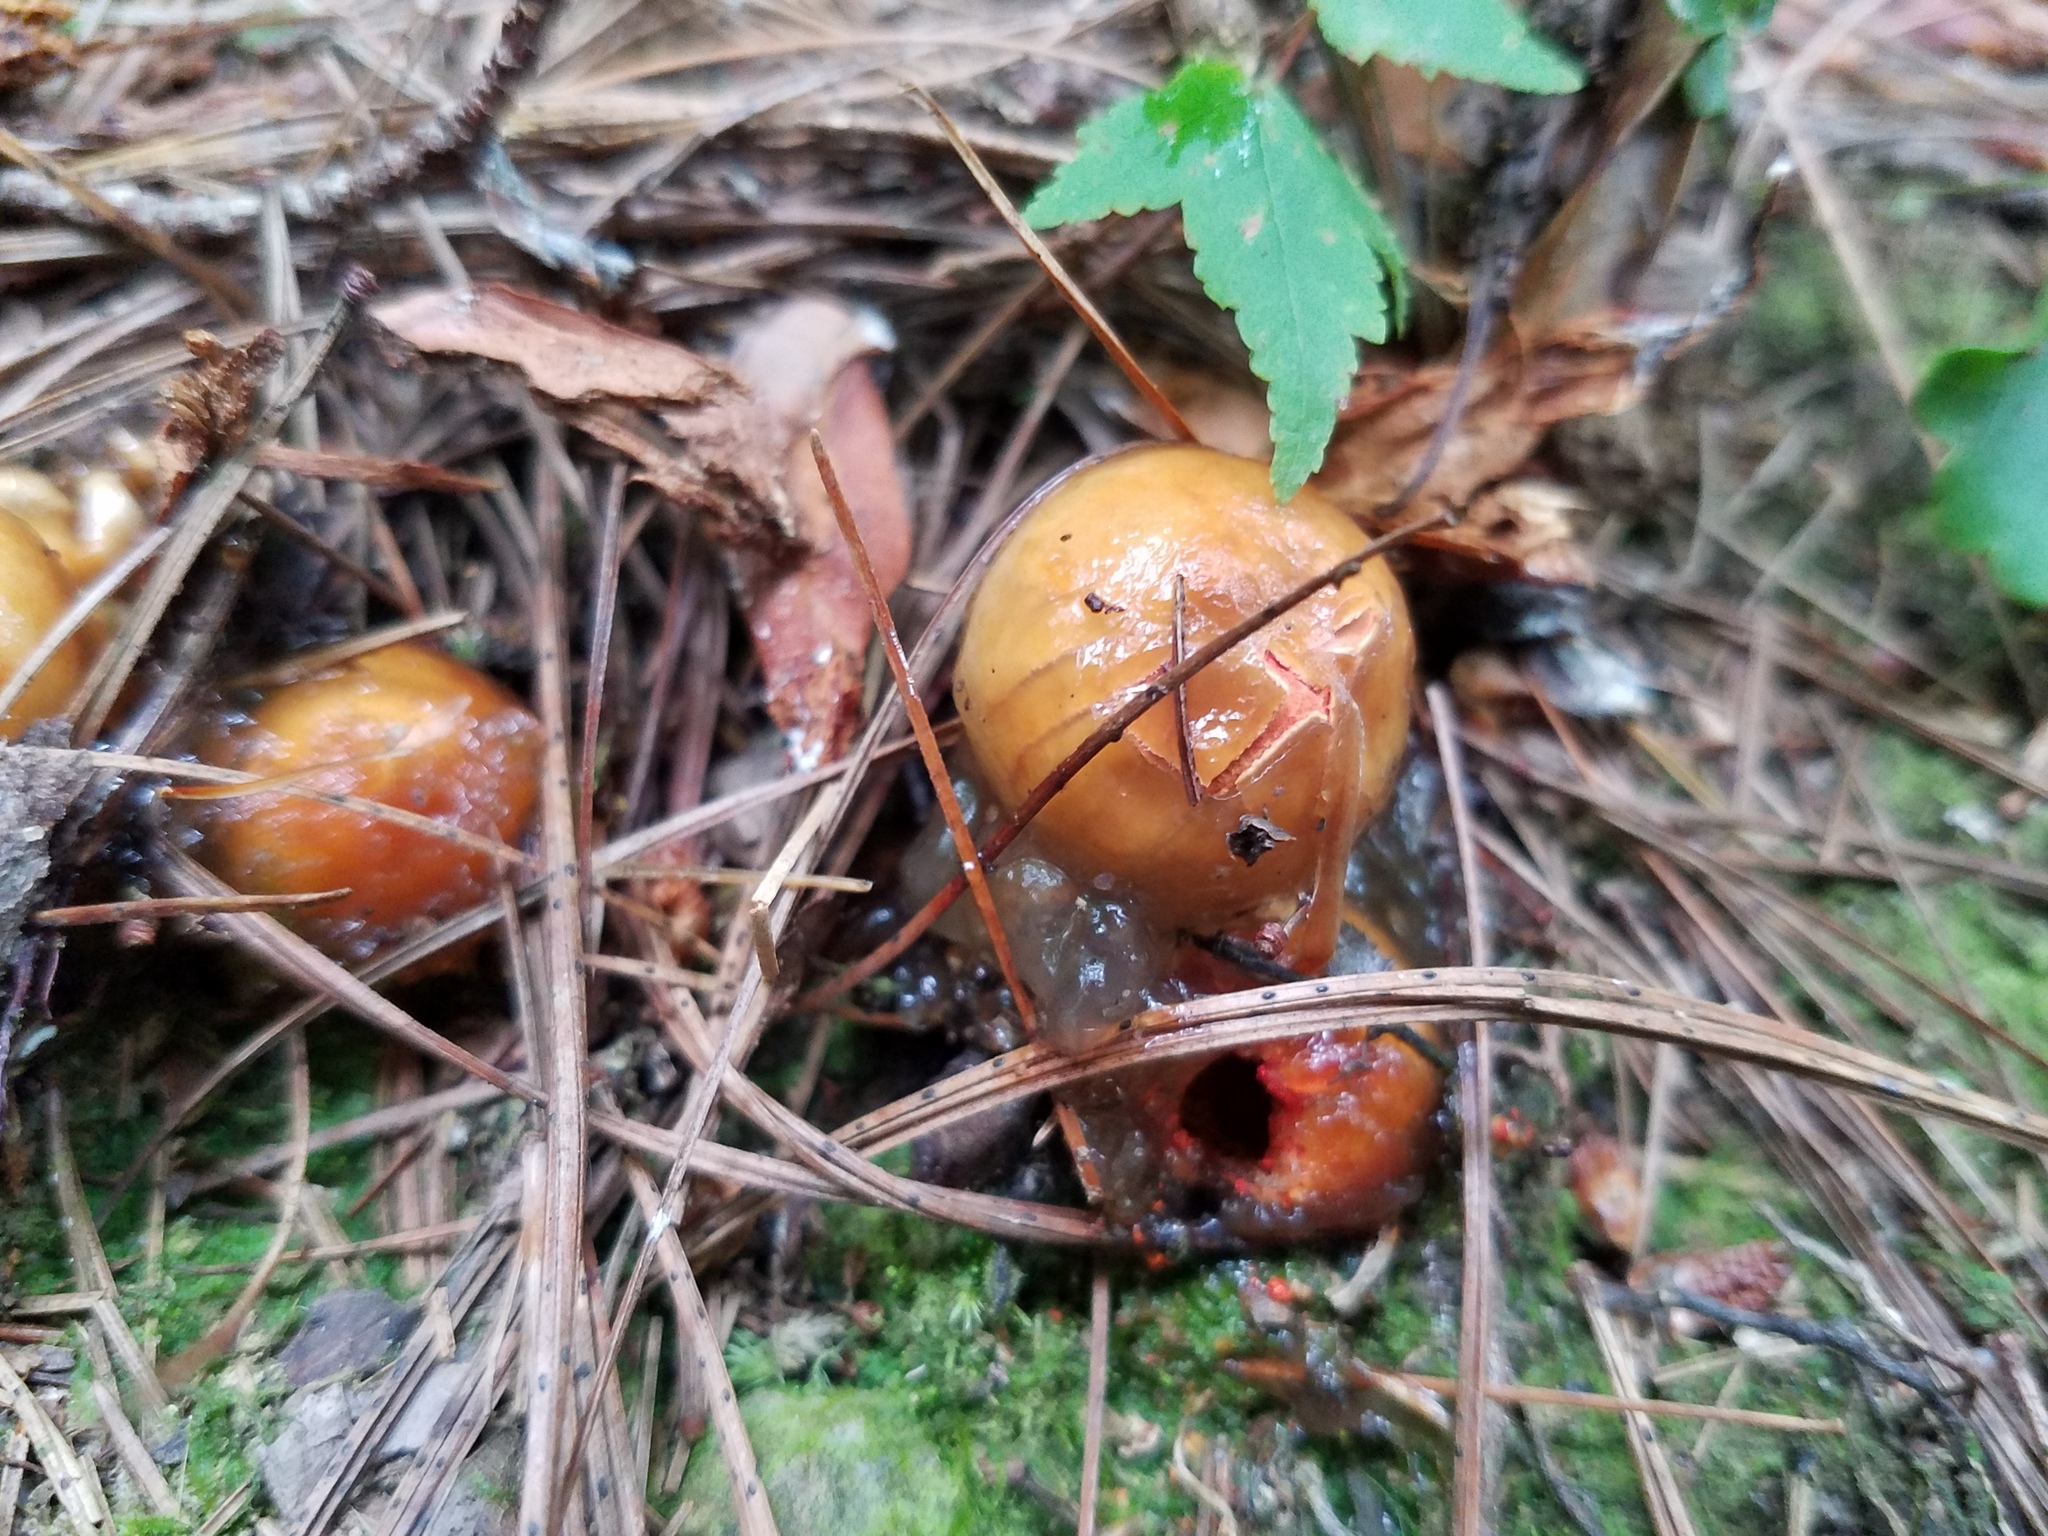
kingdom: Fungi
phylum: Basidiomycota
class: Agaricomycetes
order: Boletales
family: Calostomataceae
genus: Calostoma
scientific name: Calostoma cinnabarinum
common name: Stalked puffball-in-aspic
